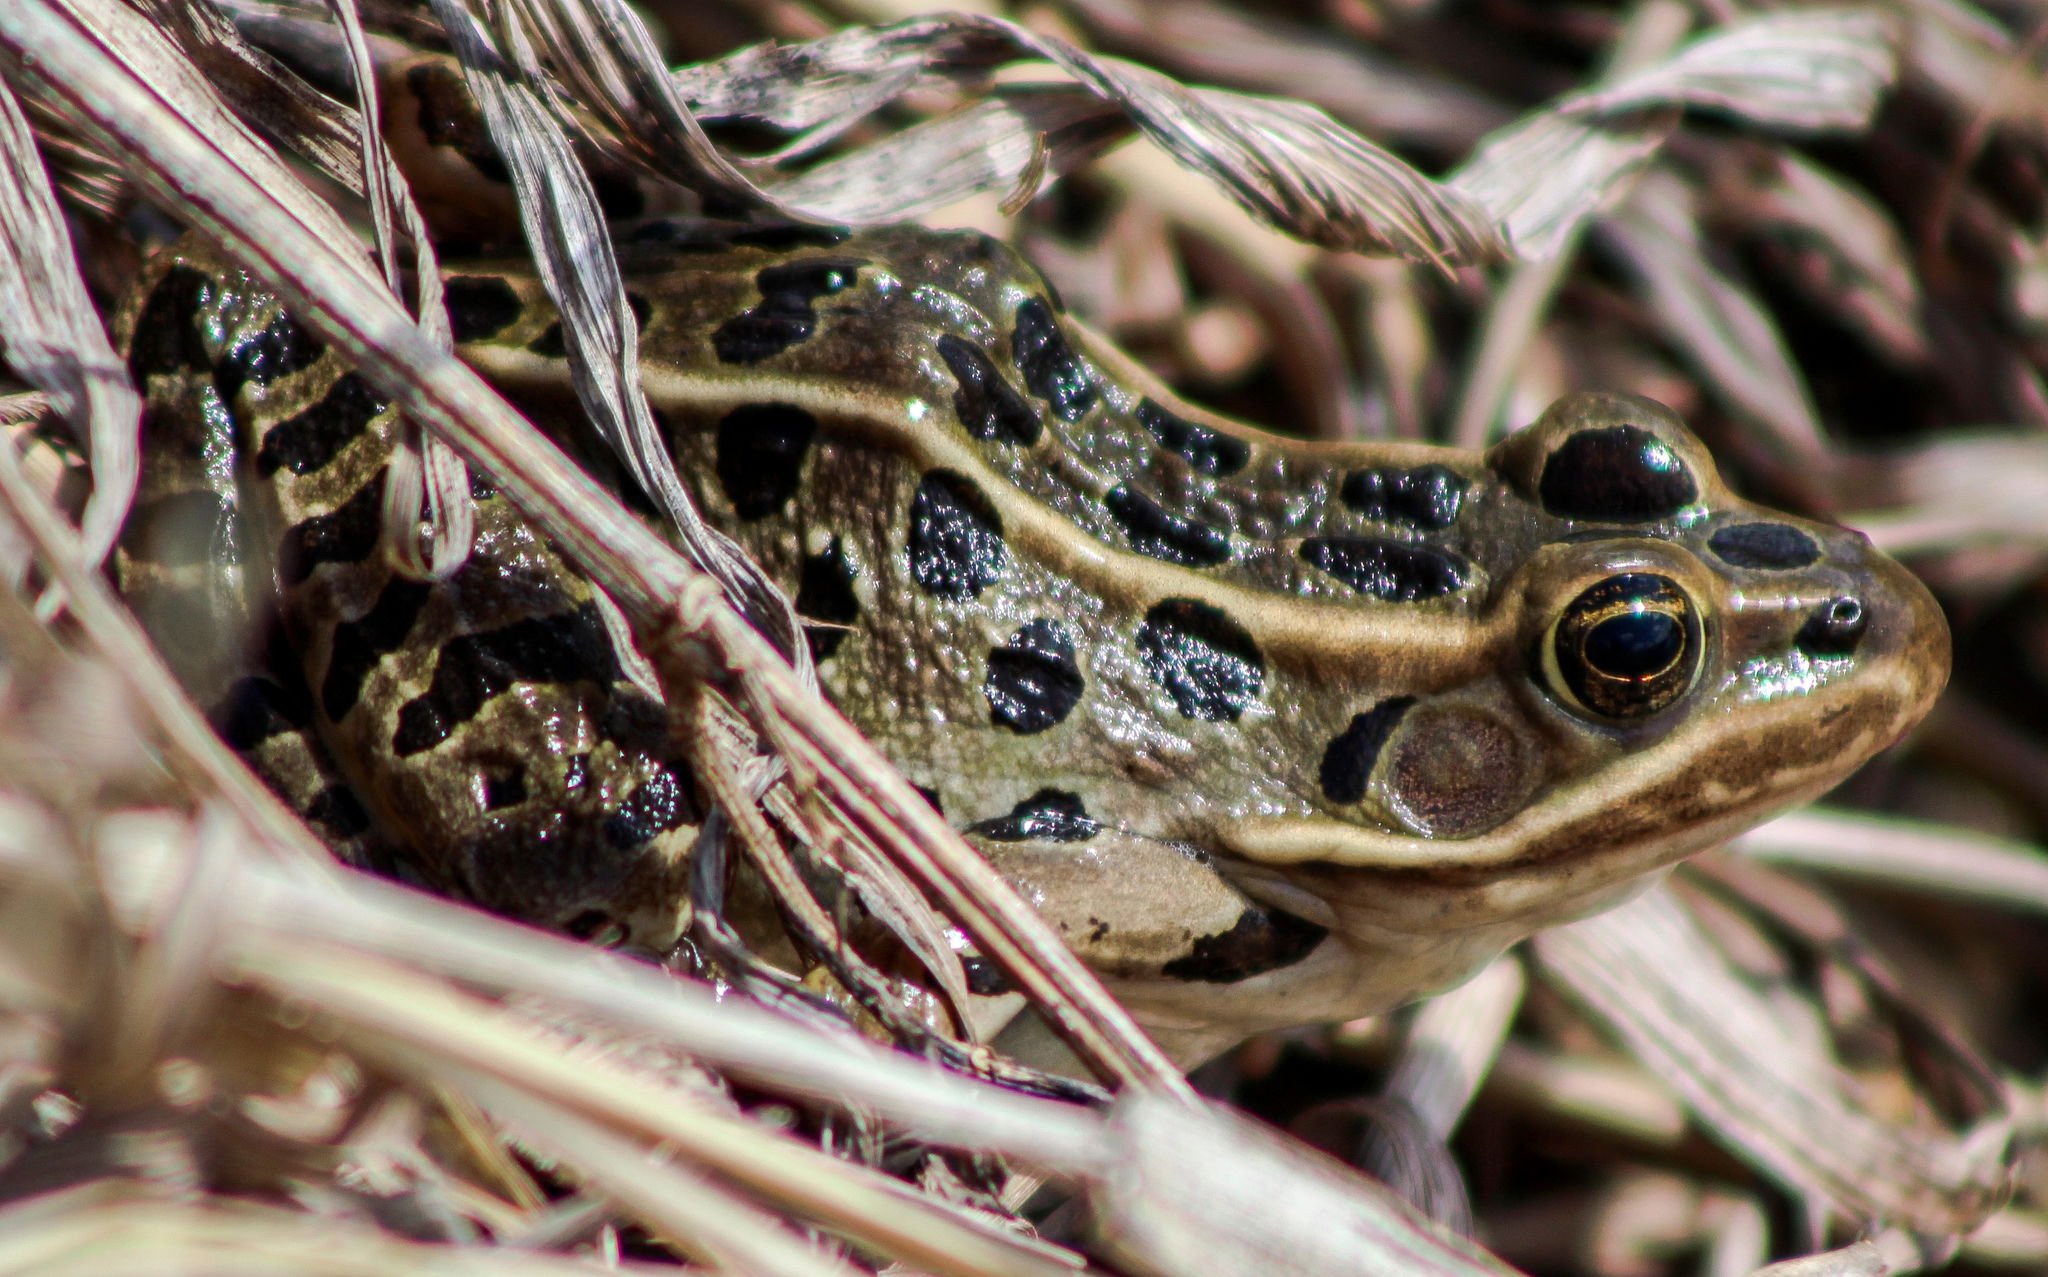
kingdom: Animalia
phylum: Chordata
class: Amphibia
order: Anura
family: Ranidae
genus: Lithobates
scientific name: Lithobates pipiens
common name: Northern leopard frog
